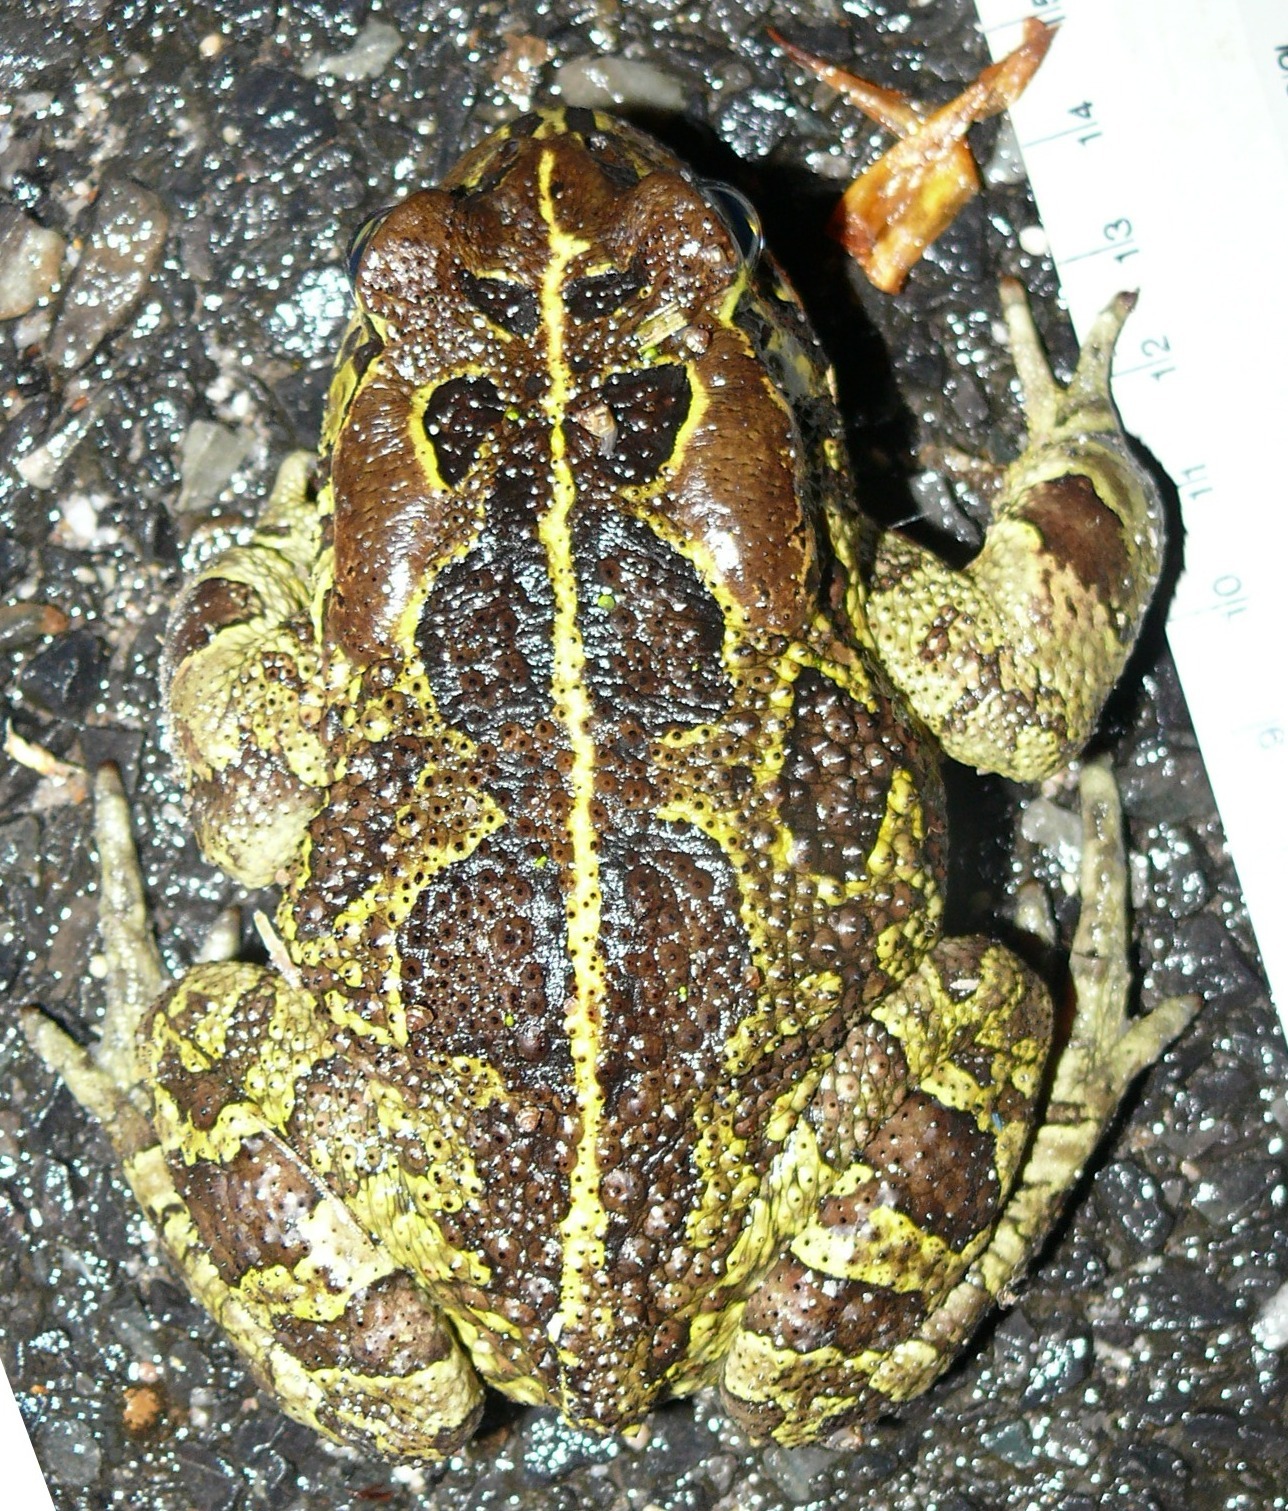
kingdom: Animalia
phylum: Chordata
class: Amphibia
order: Anura
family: Bufonidae
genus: Sclerophrys
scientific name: Sclerophrys pantherina
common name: Panther toad
